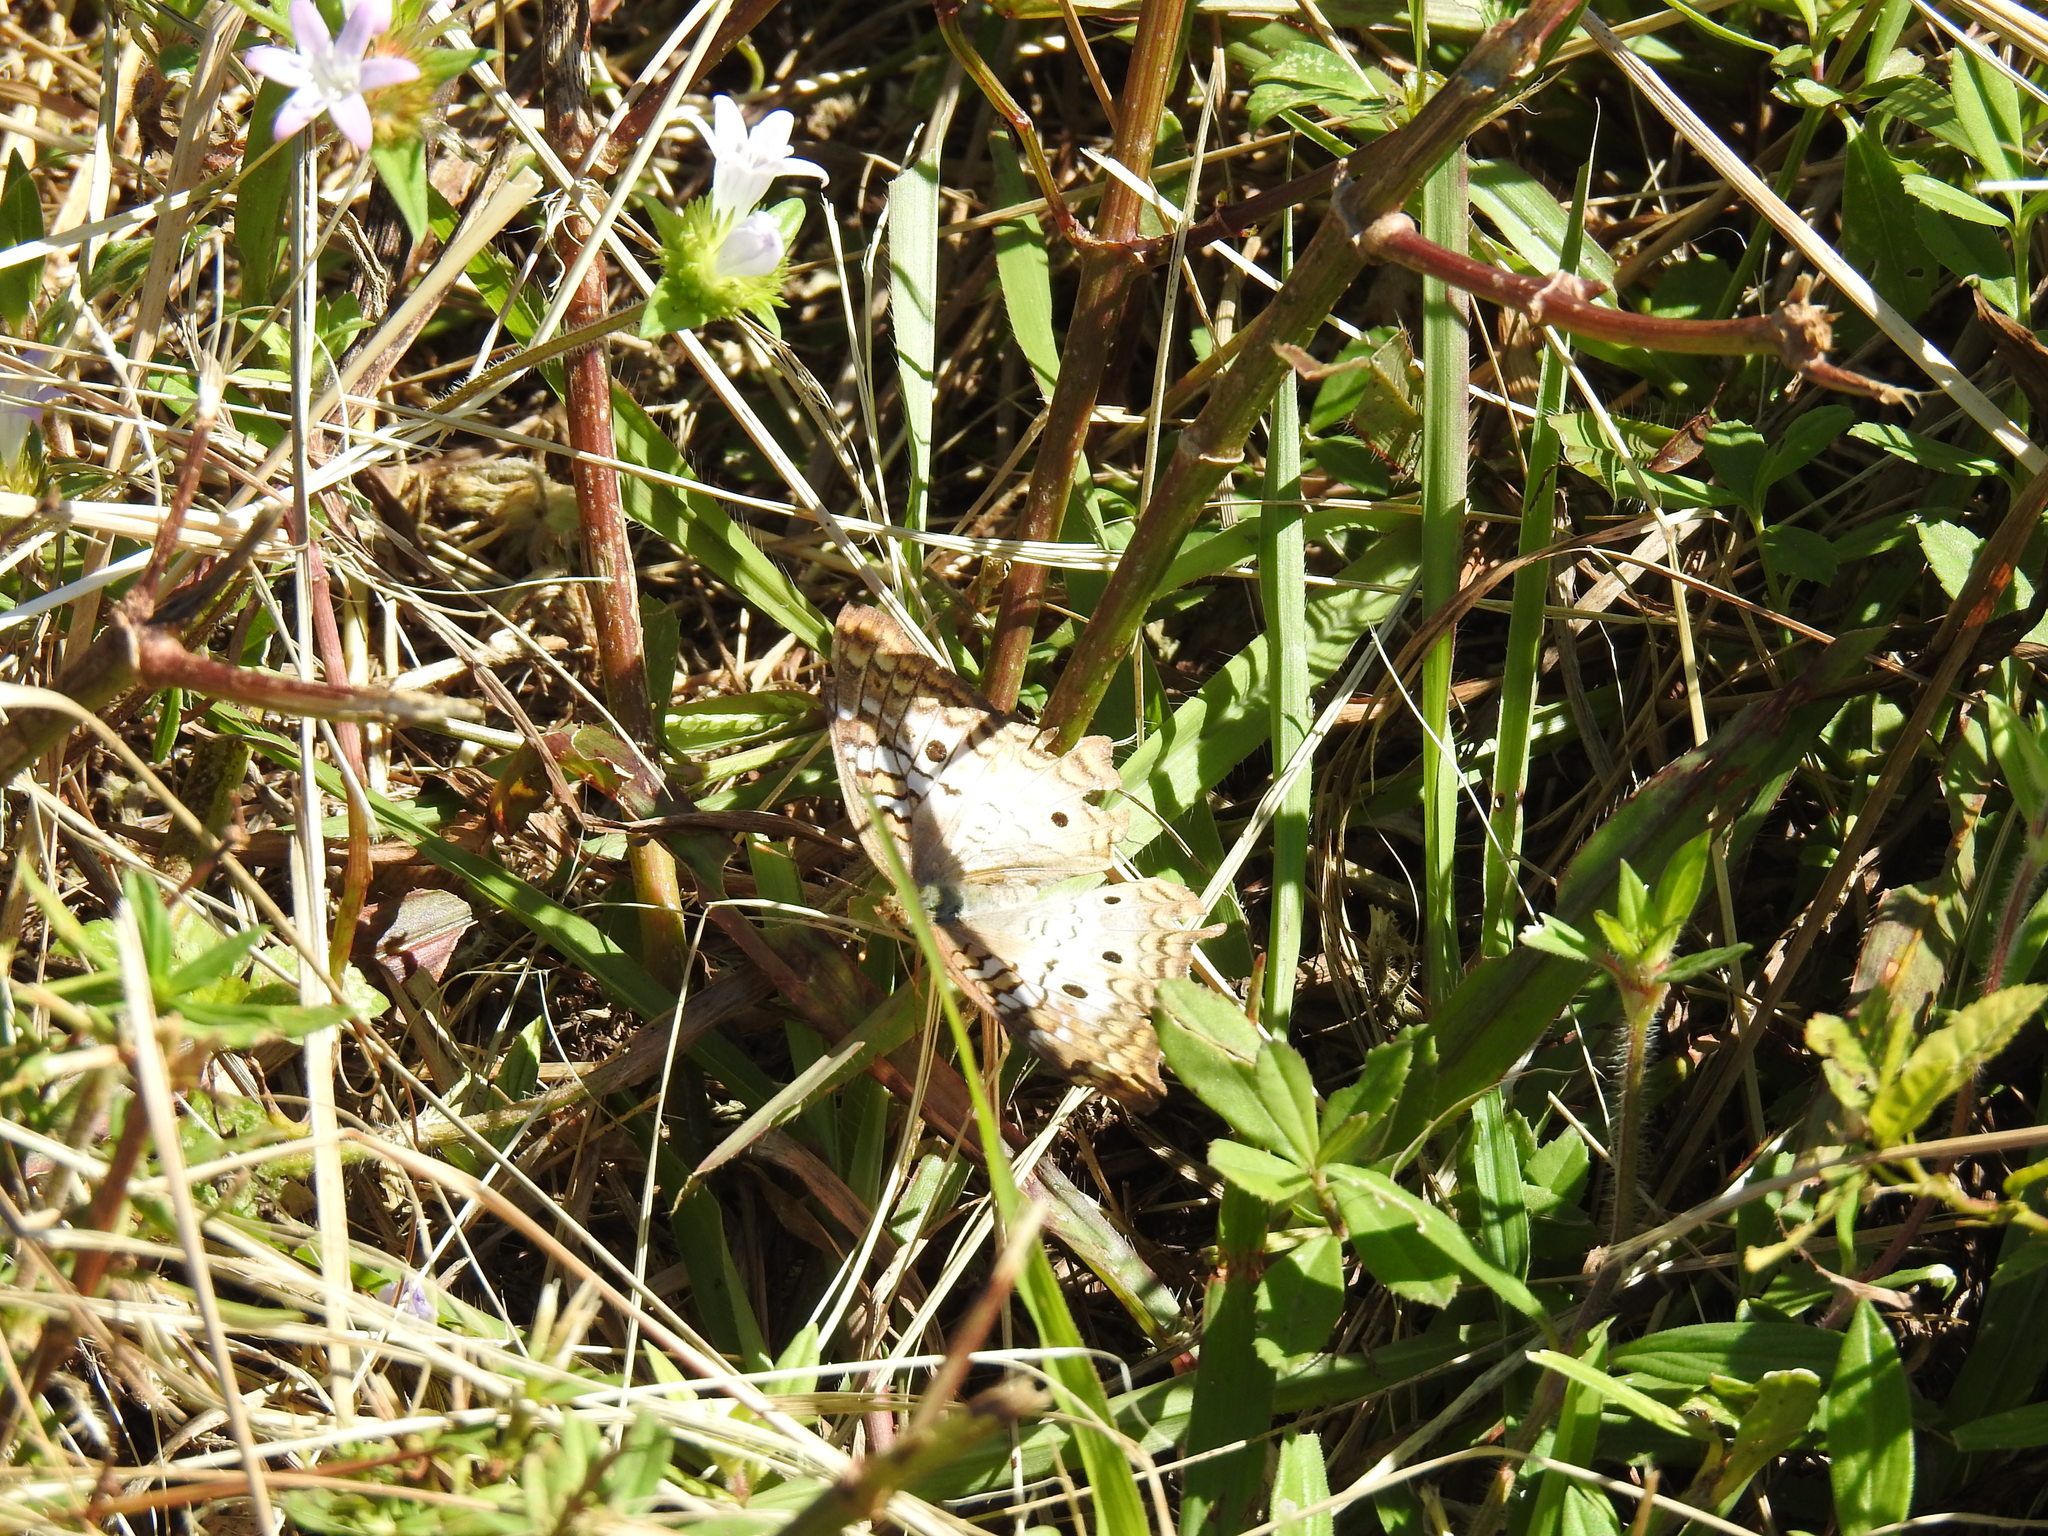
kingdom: Animalia
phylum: Arthropoda
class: Insecta
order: Lepidoptera
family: Nymphalidae
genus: Anartia
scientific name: Anartia jatrophae
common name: White peacock
